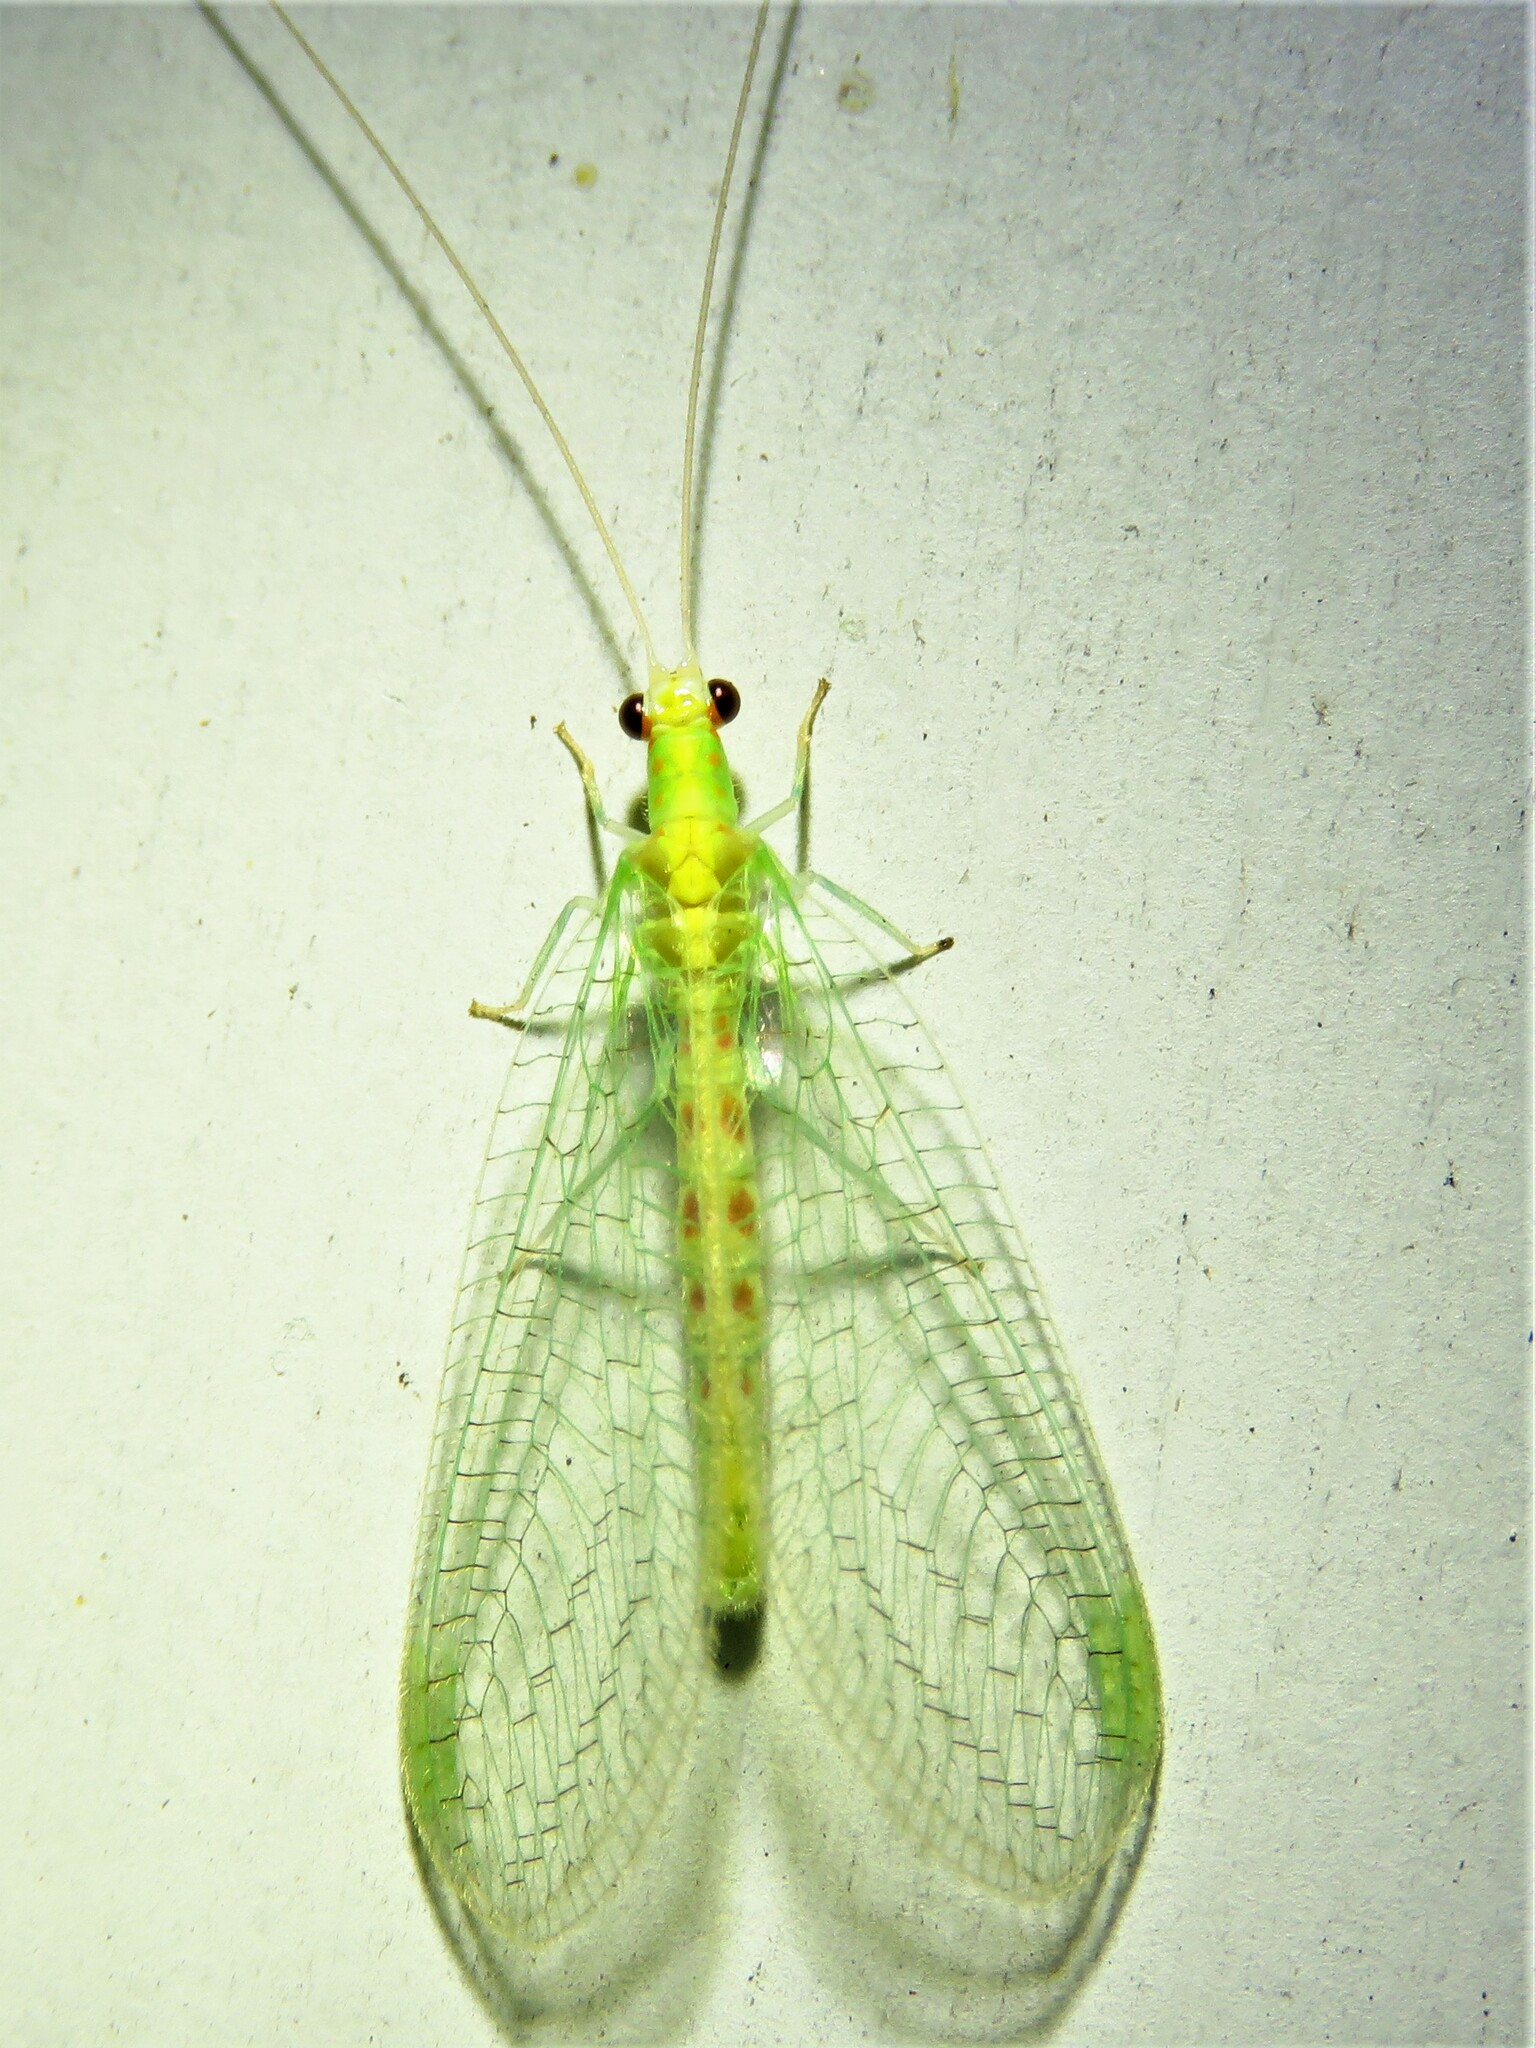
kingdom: Animalia
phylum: Arthropoda
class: Insecta
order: Neuroptera
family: Chrysopidae
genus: Chrysopa
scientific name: Chrysopa quadripunctata
